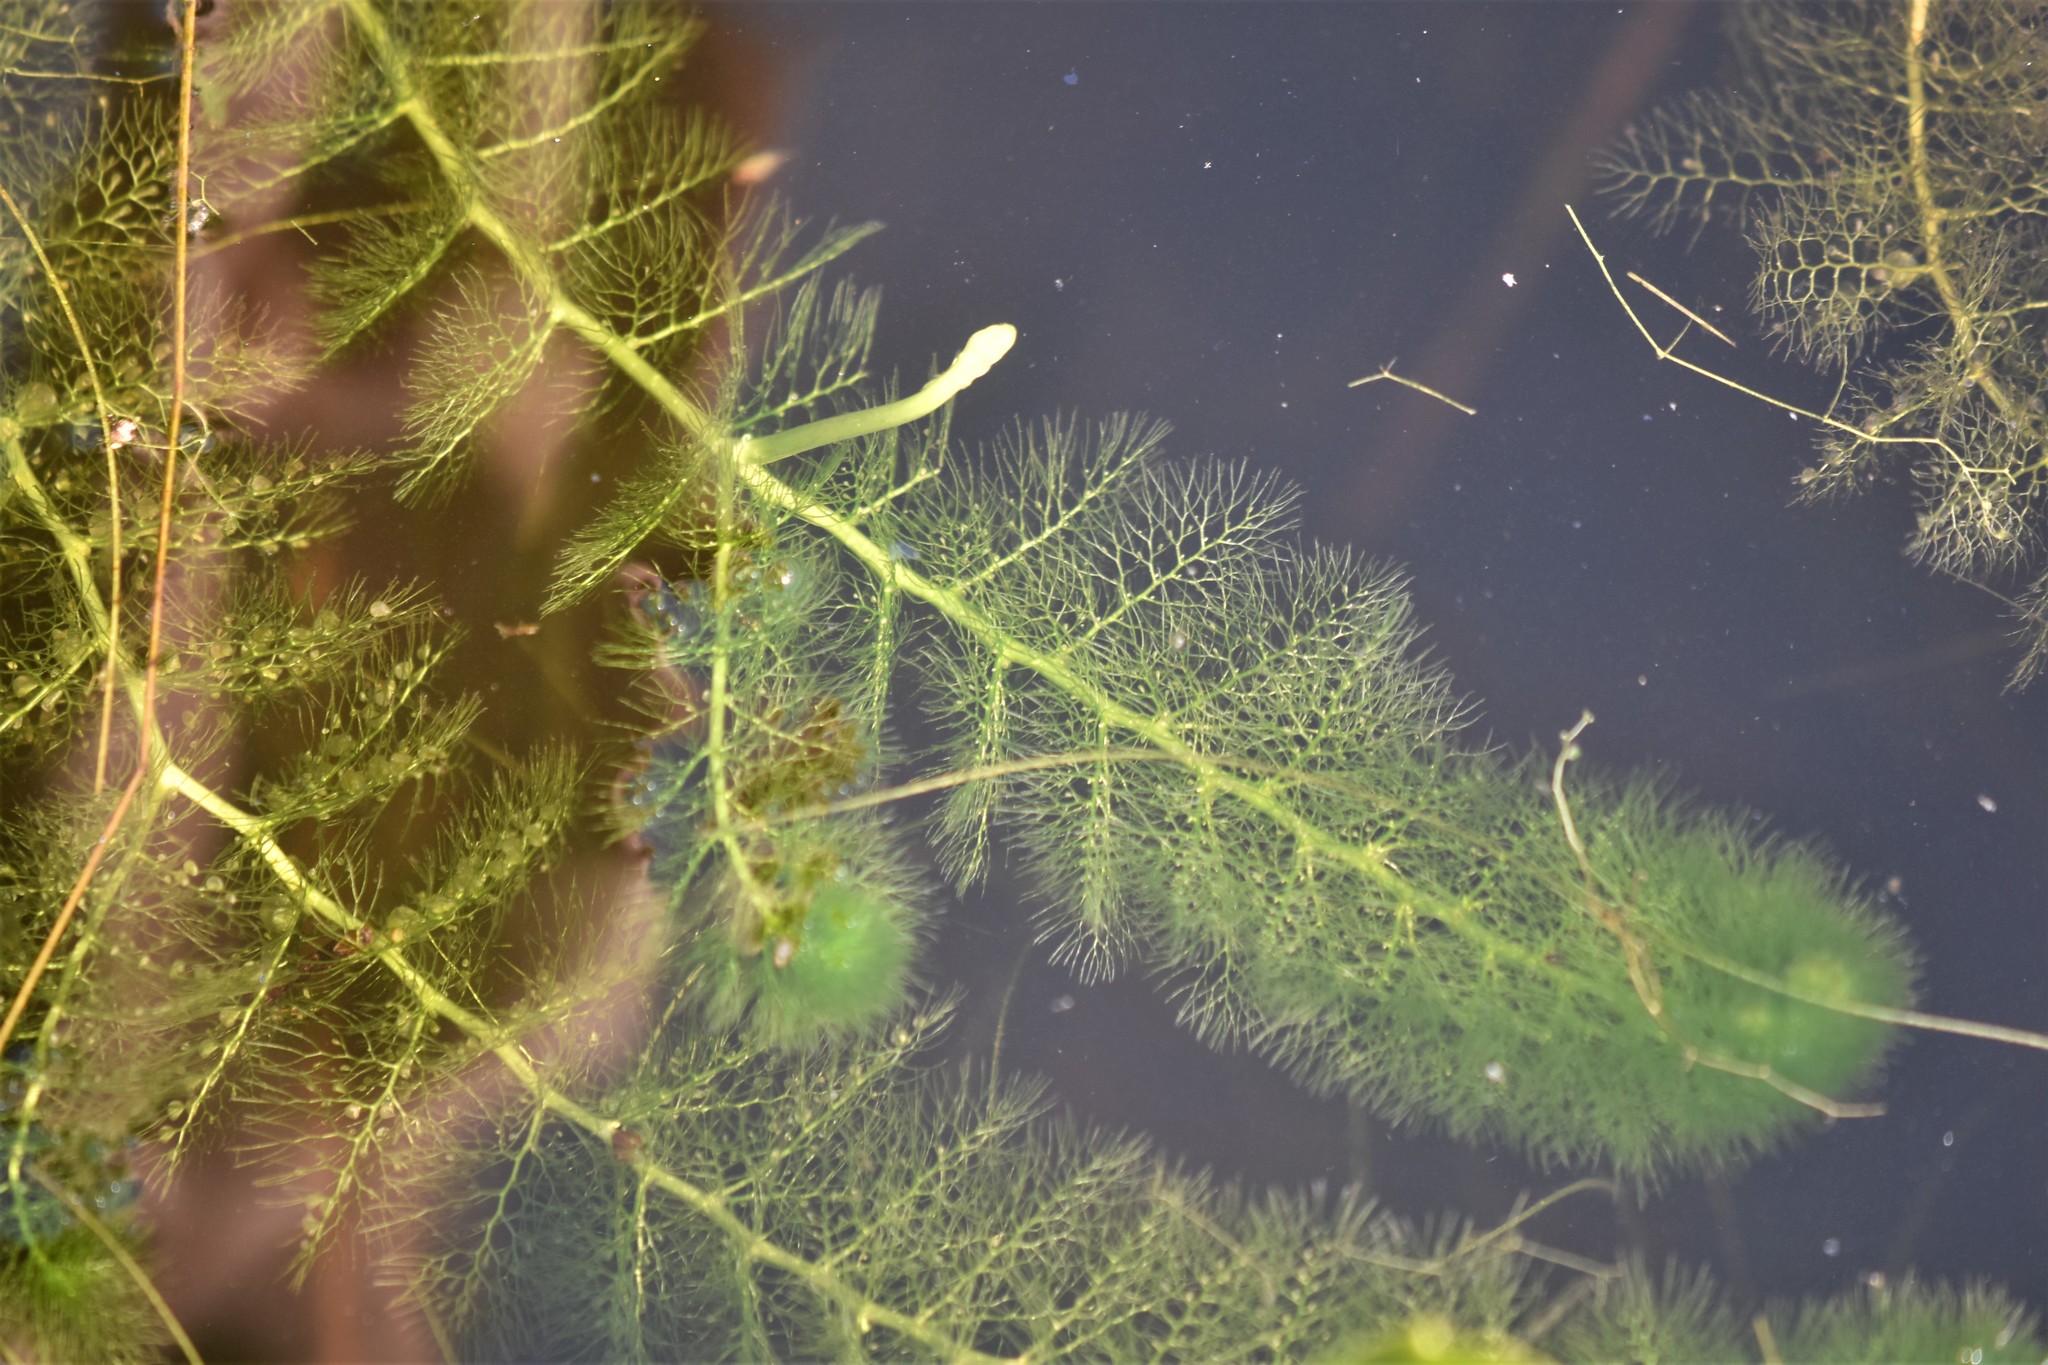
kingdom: Plantae
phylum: Tracheophyta
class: Magnoliopsida
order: Lamiales
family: Lentibulariaceae
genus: Utricularia
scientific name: Utricularia macrorhiza
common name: Common bladderwort
